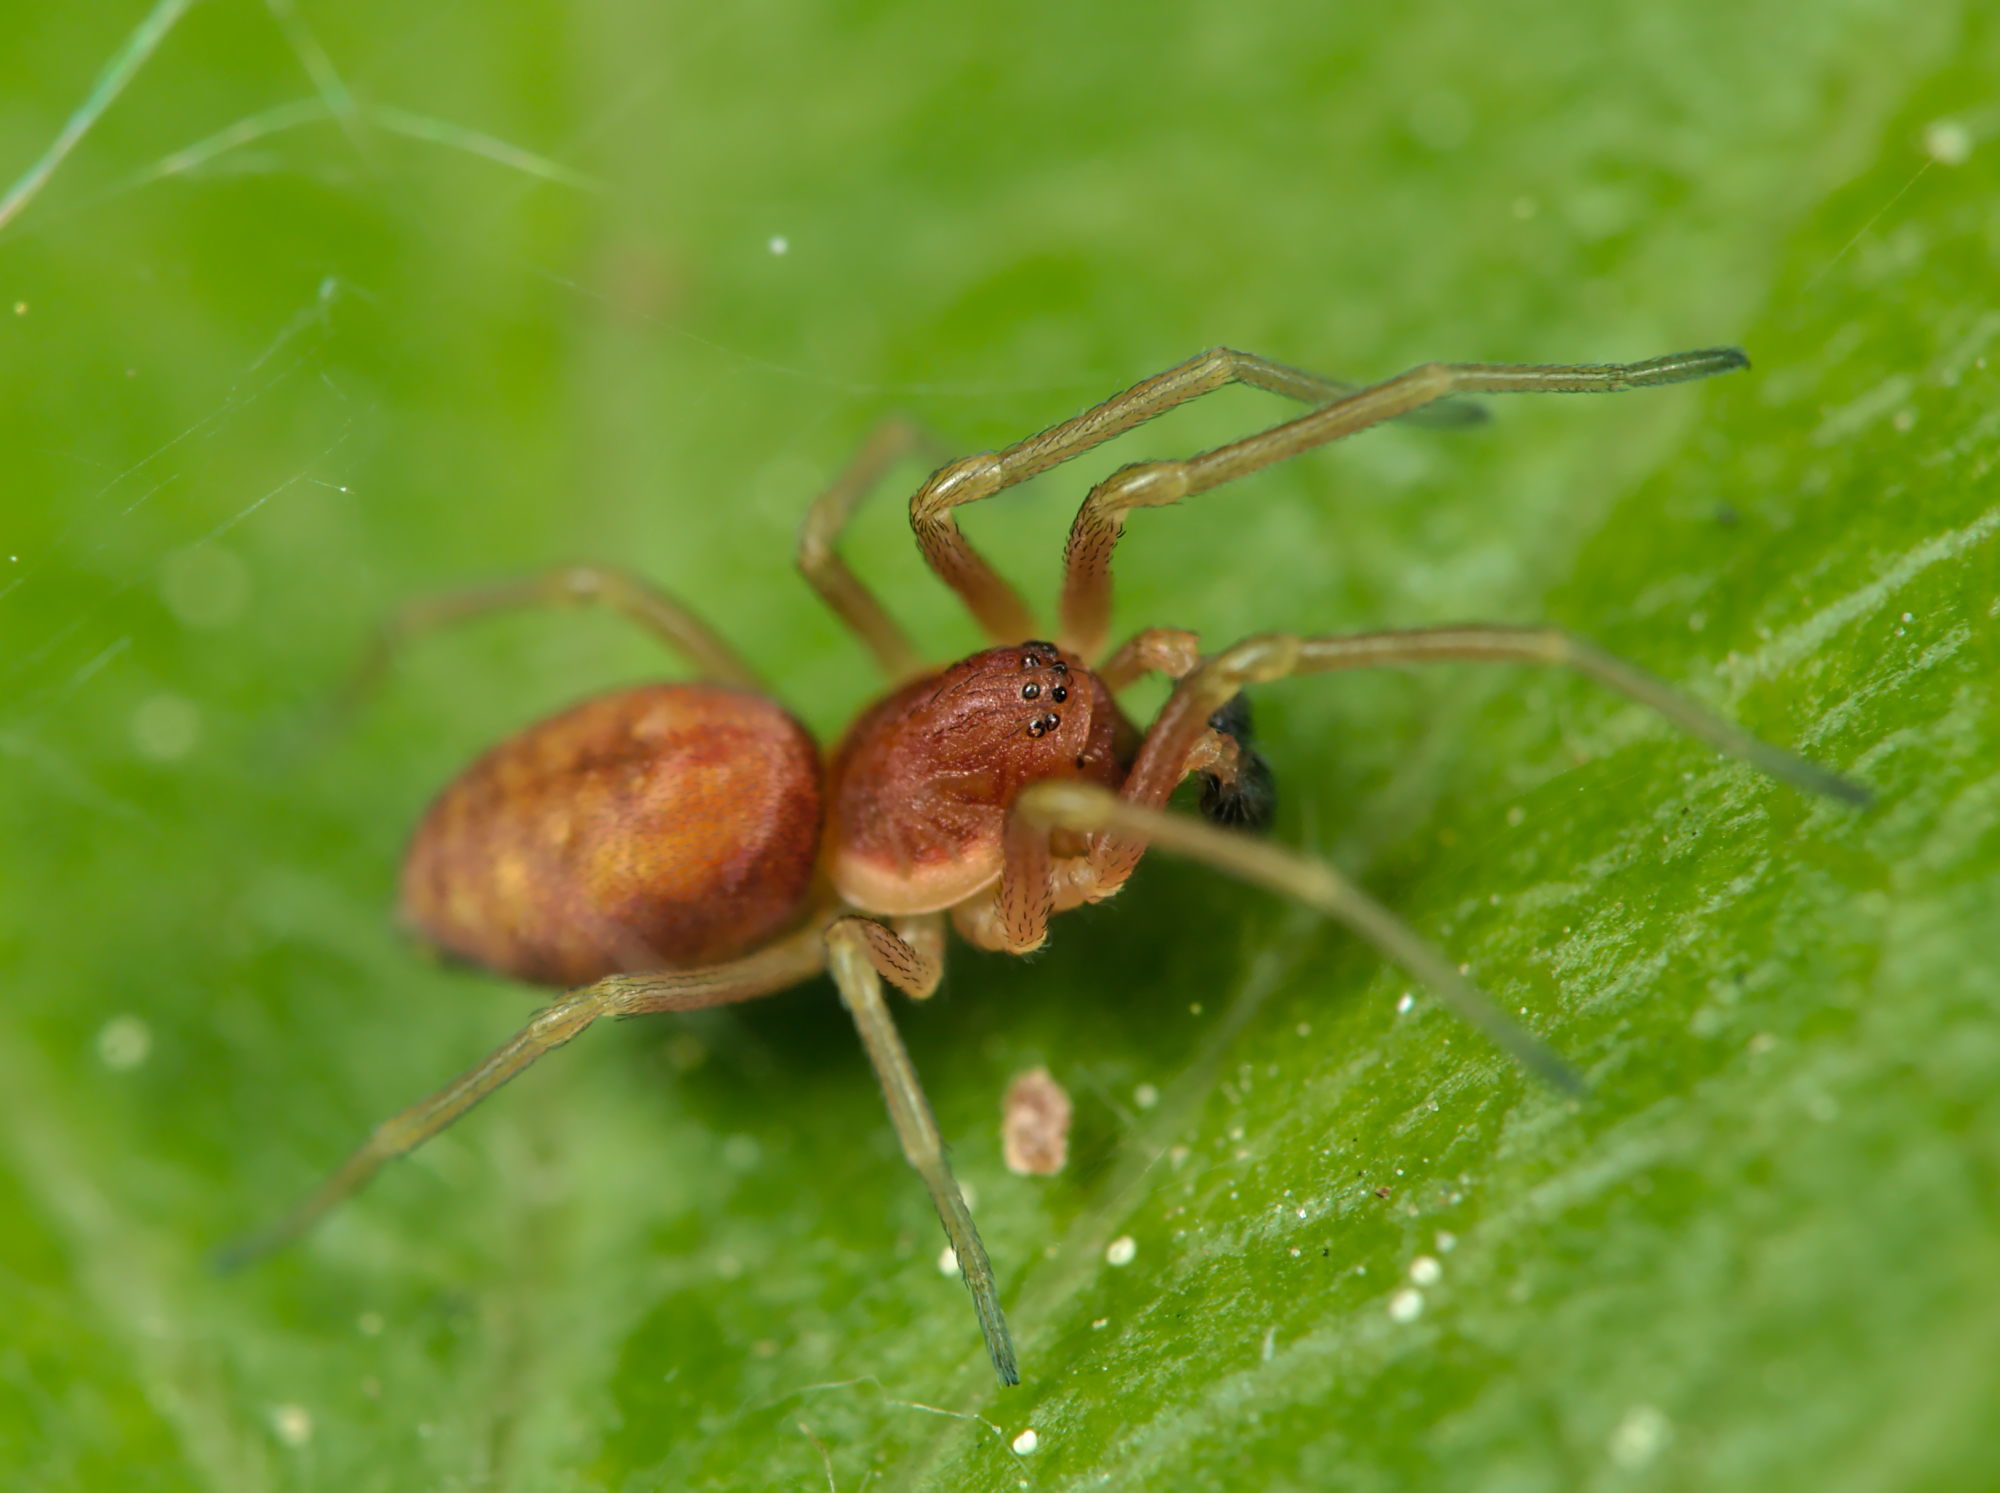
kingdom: Animalia
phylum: Arthropoda
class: Arachnida
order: Araneae
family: Dictynidae
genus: Nigma
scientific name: Nigma flavescens
